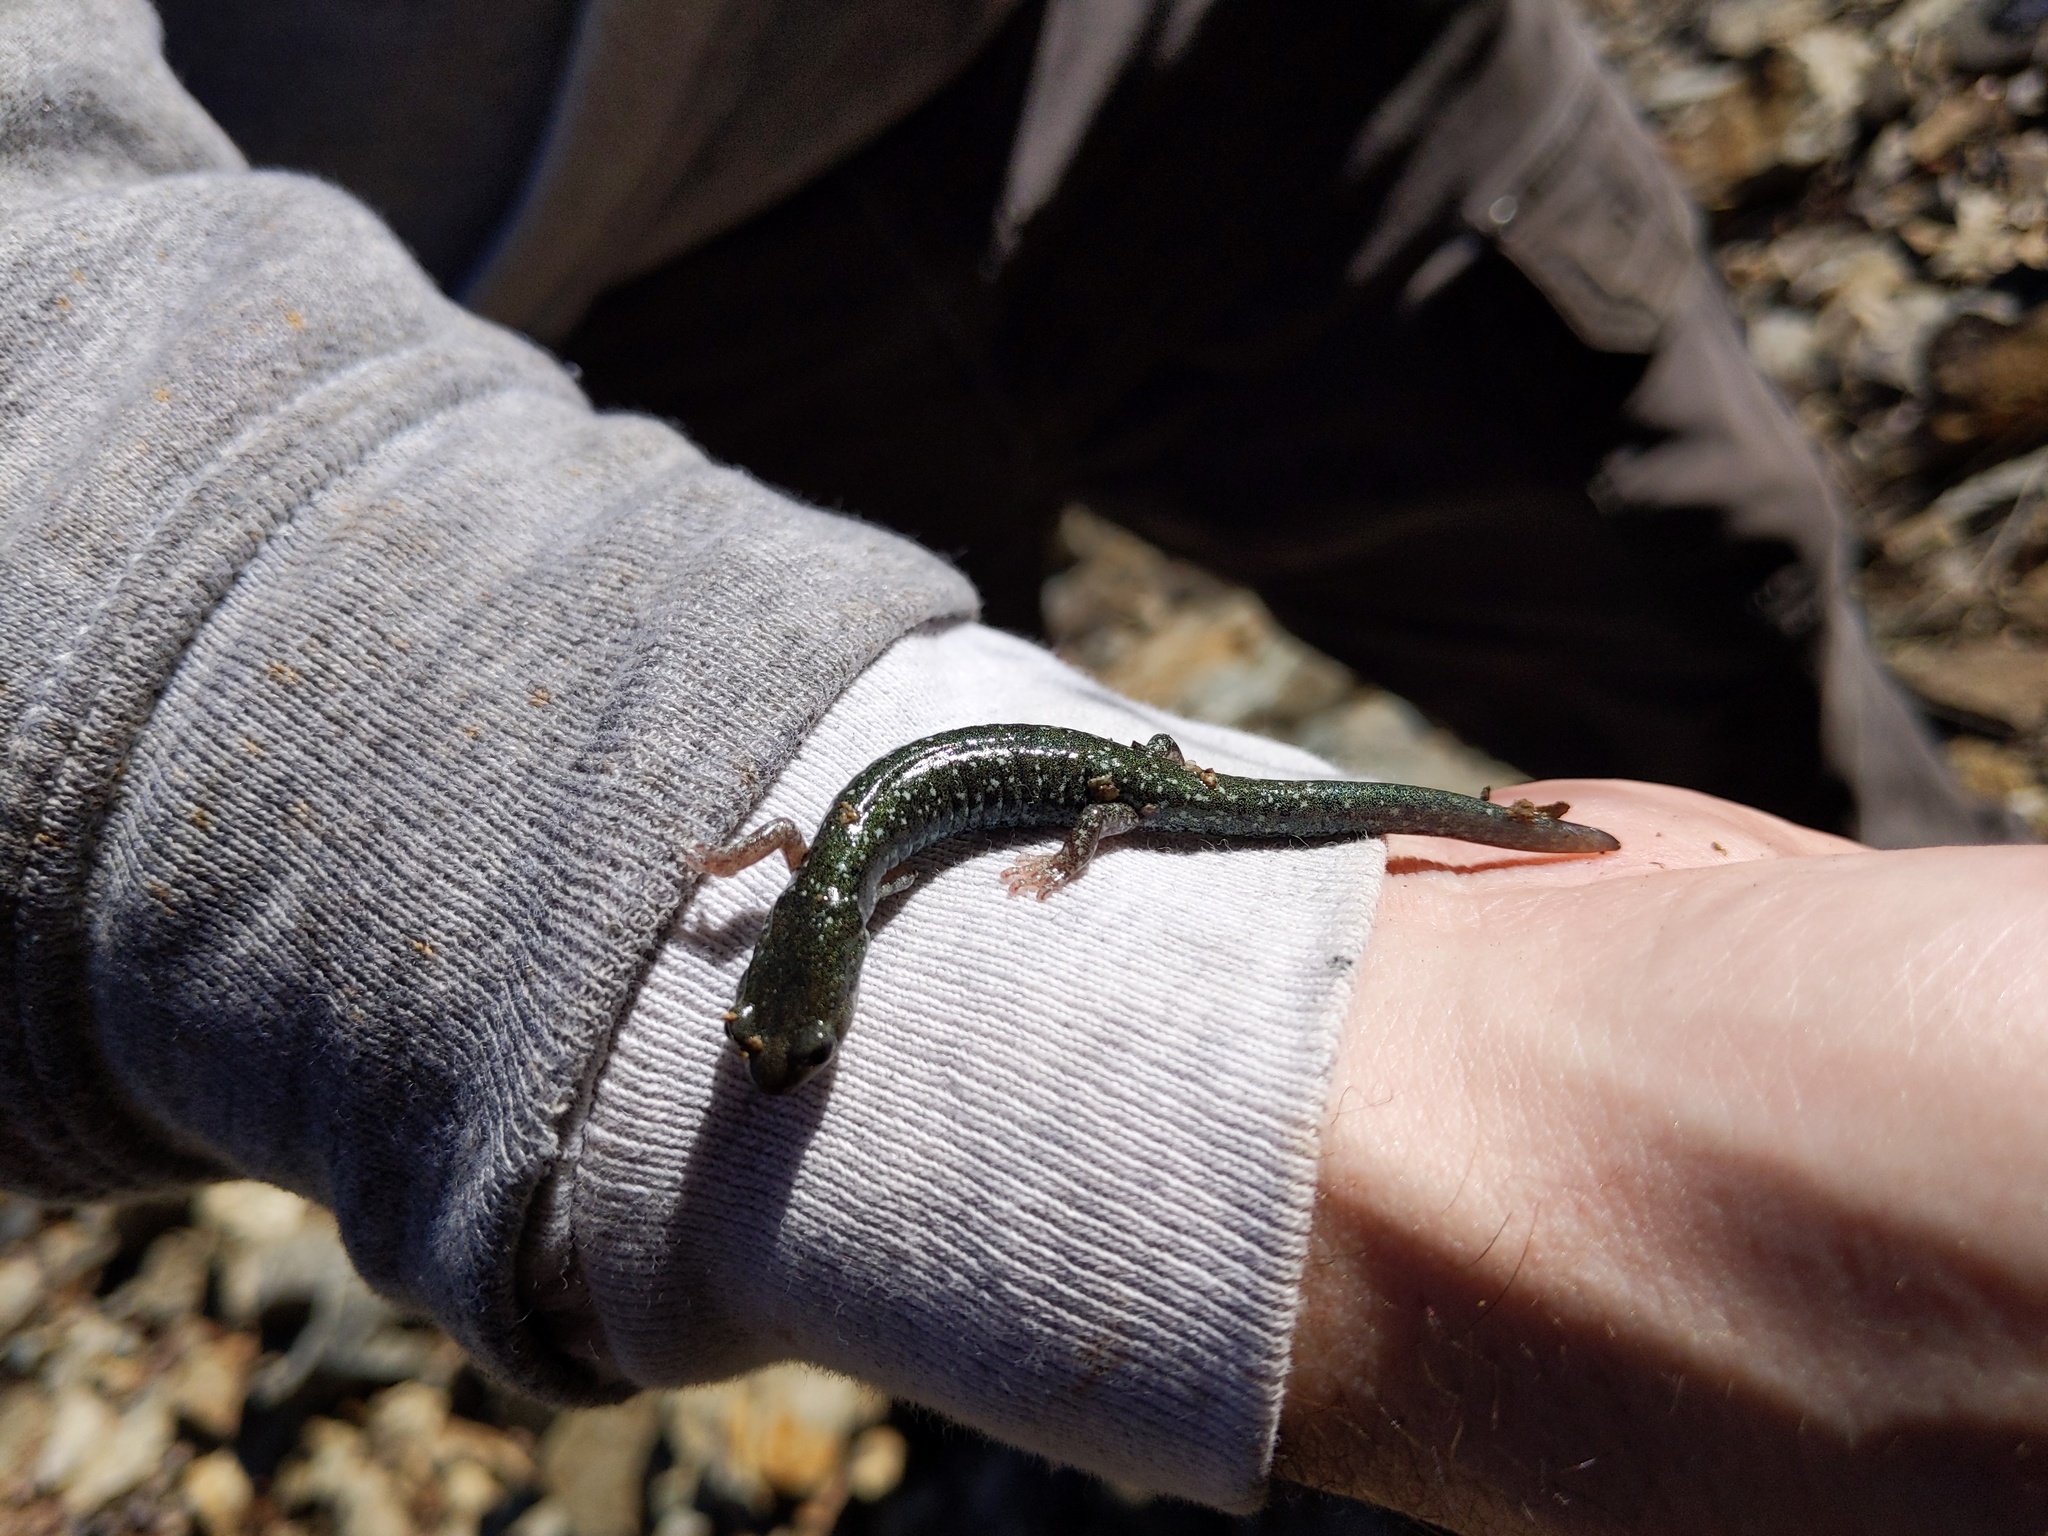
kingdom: Animalia
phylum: Chordata
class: Amphibia
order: Caudata
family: Plethodontidae
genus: Aneides
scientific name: Aneides klamathensis
